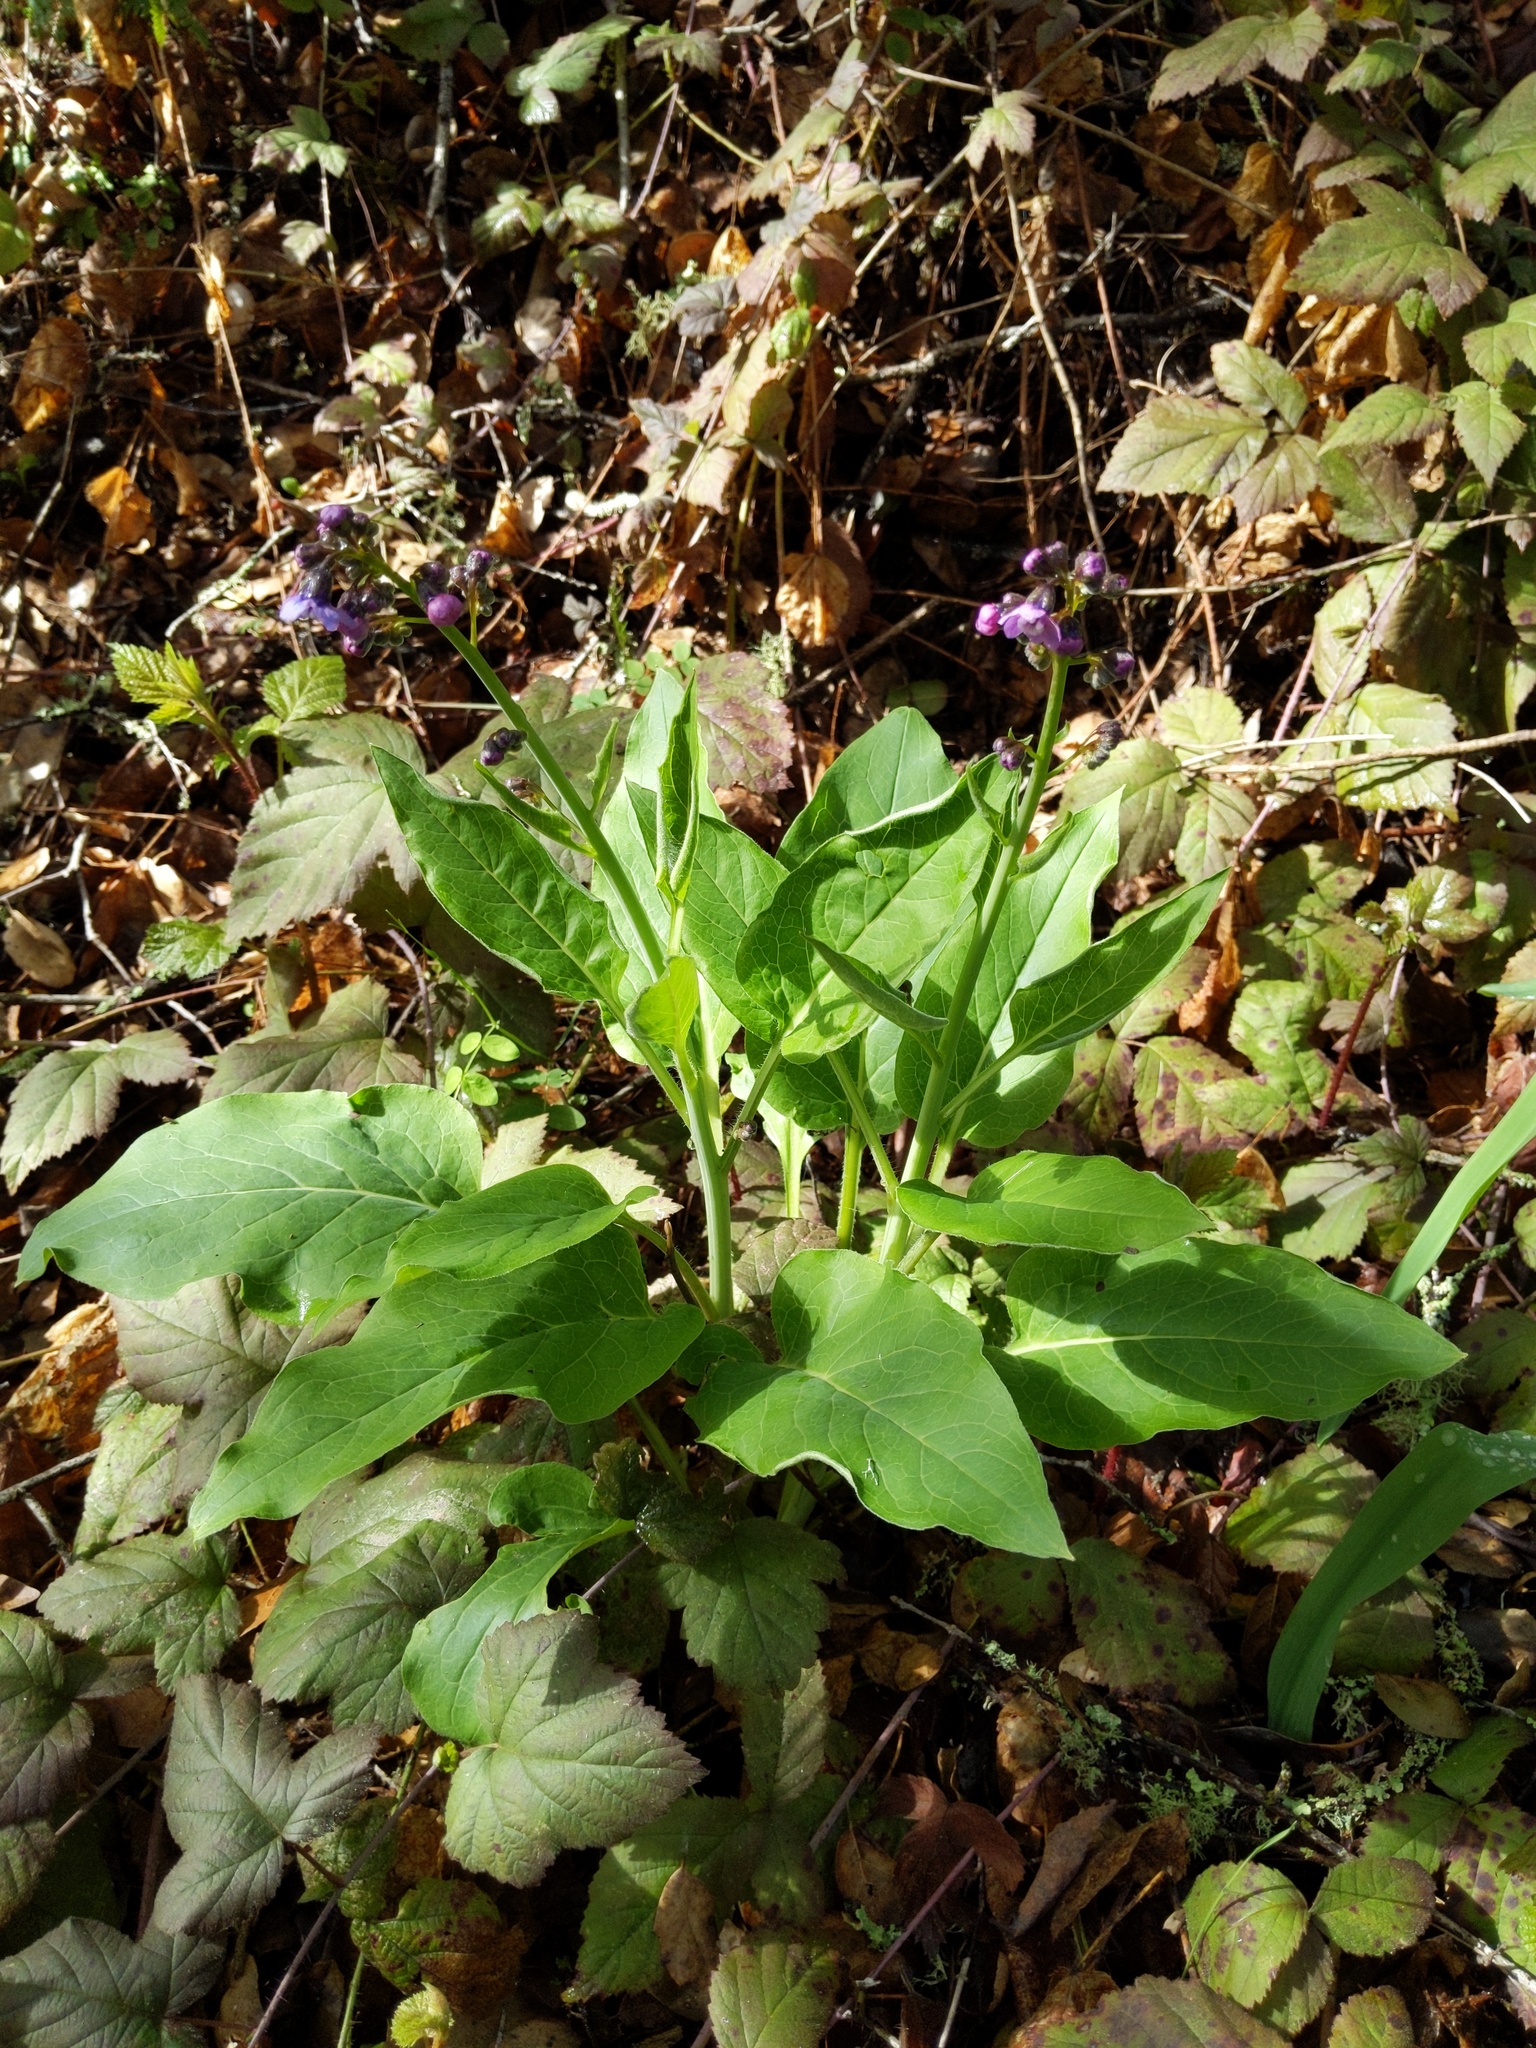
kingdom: Plantae
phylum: Tracheophyta
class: Magnoliopsida
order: Boraginales
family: Boraginaceae
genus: Adelinia
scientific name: Adelinia grande
